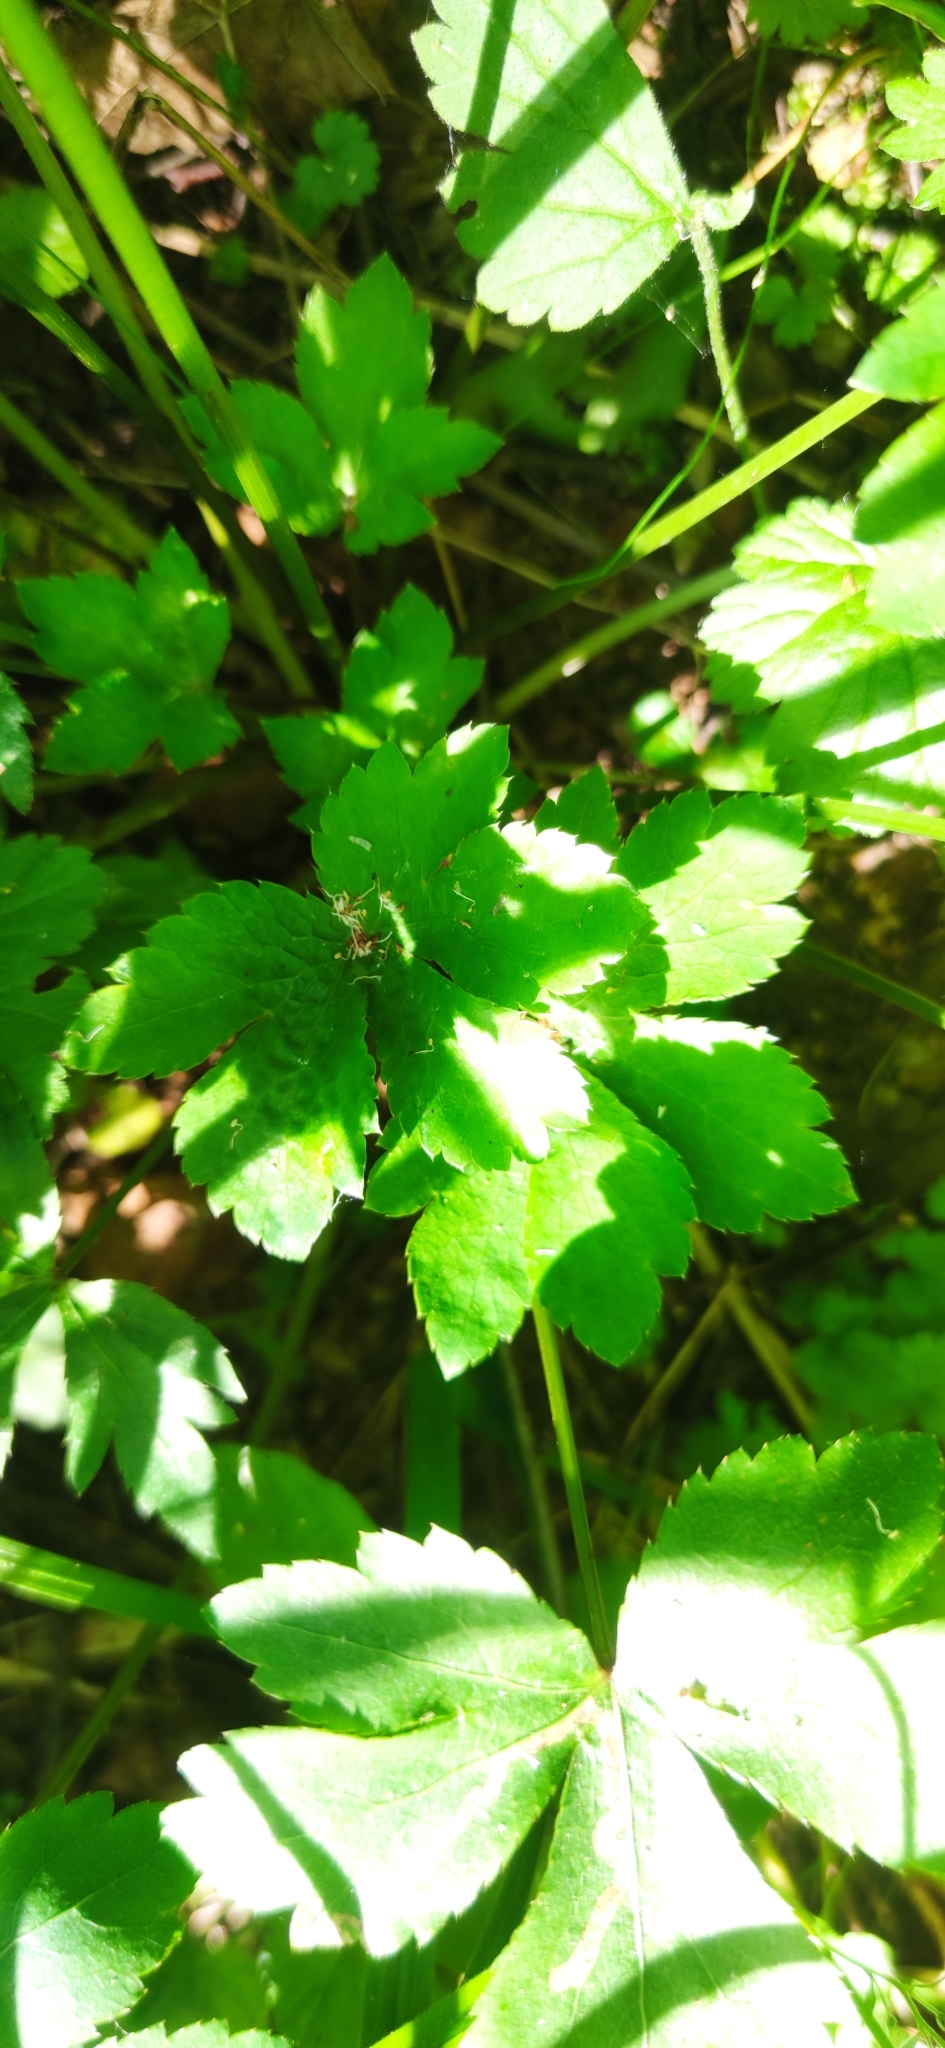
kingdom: Plantae
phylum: Tracheophyta
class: Magnoliopsida
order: Apiales
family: Apiaceae
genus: Sanicula
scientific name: Sanicula europaea
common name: Sanicle
